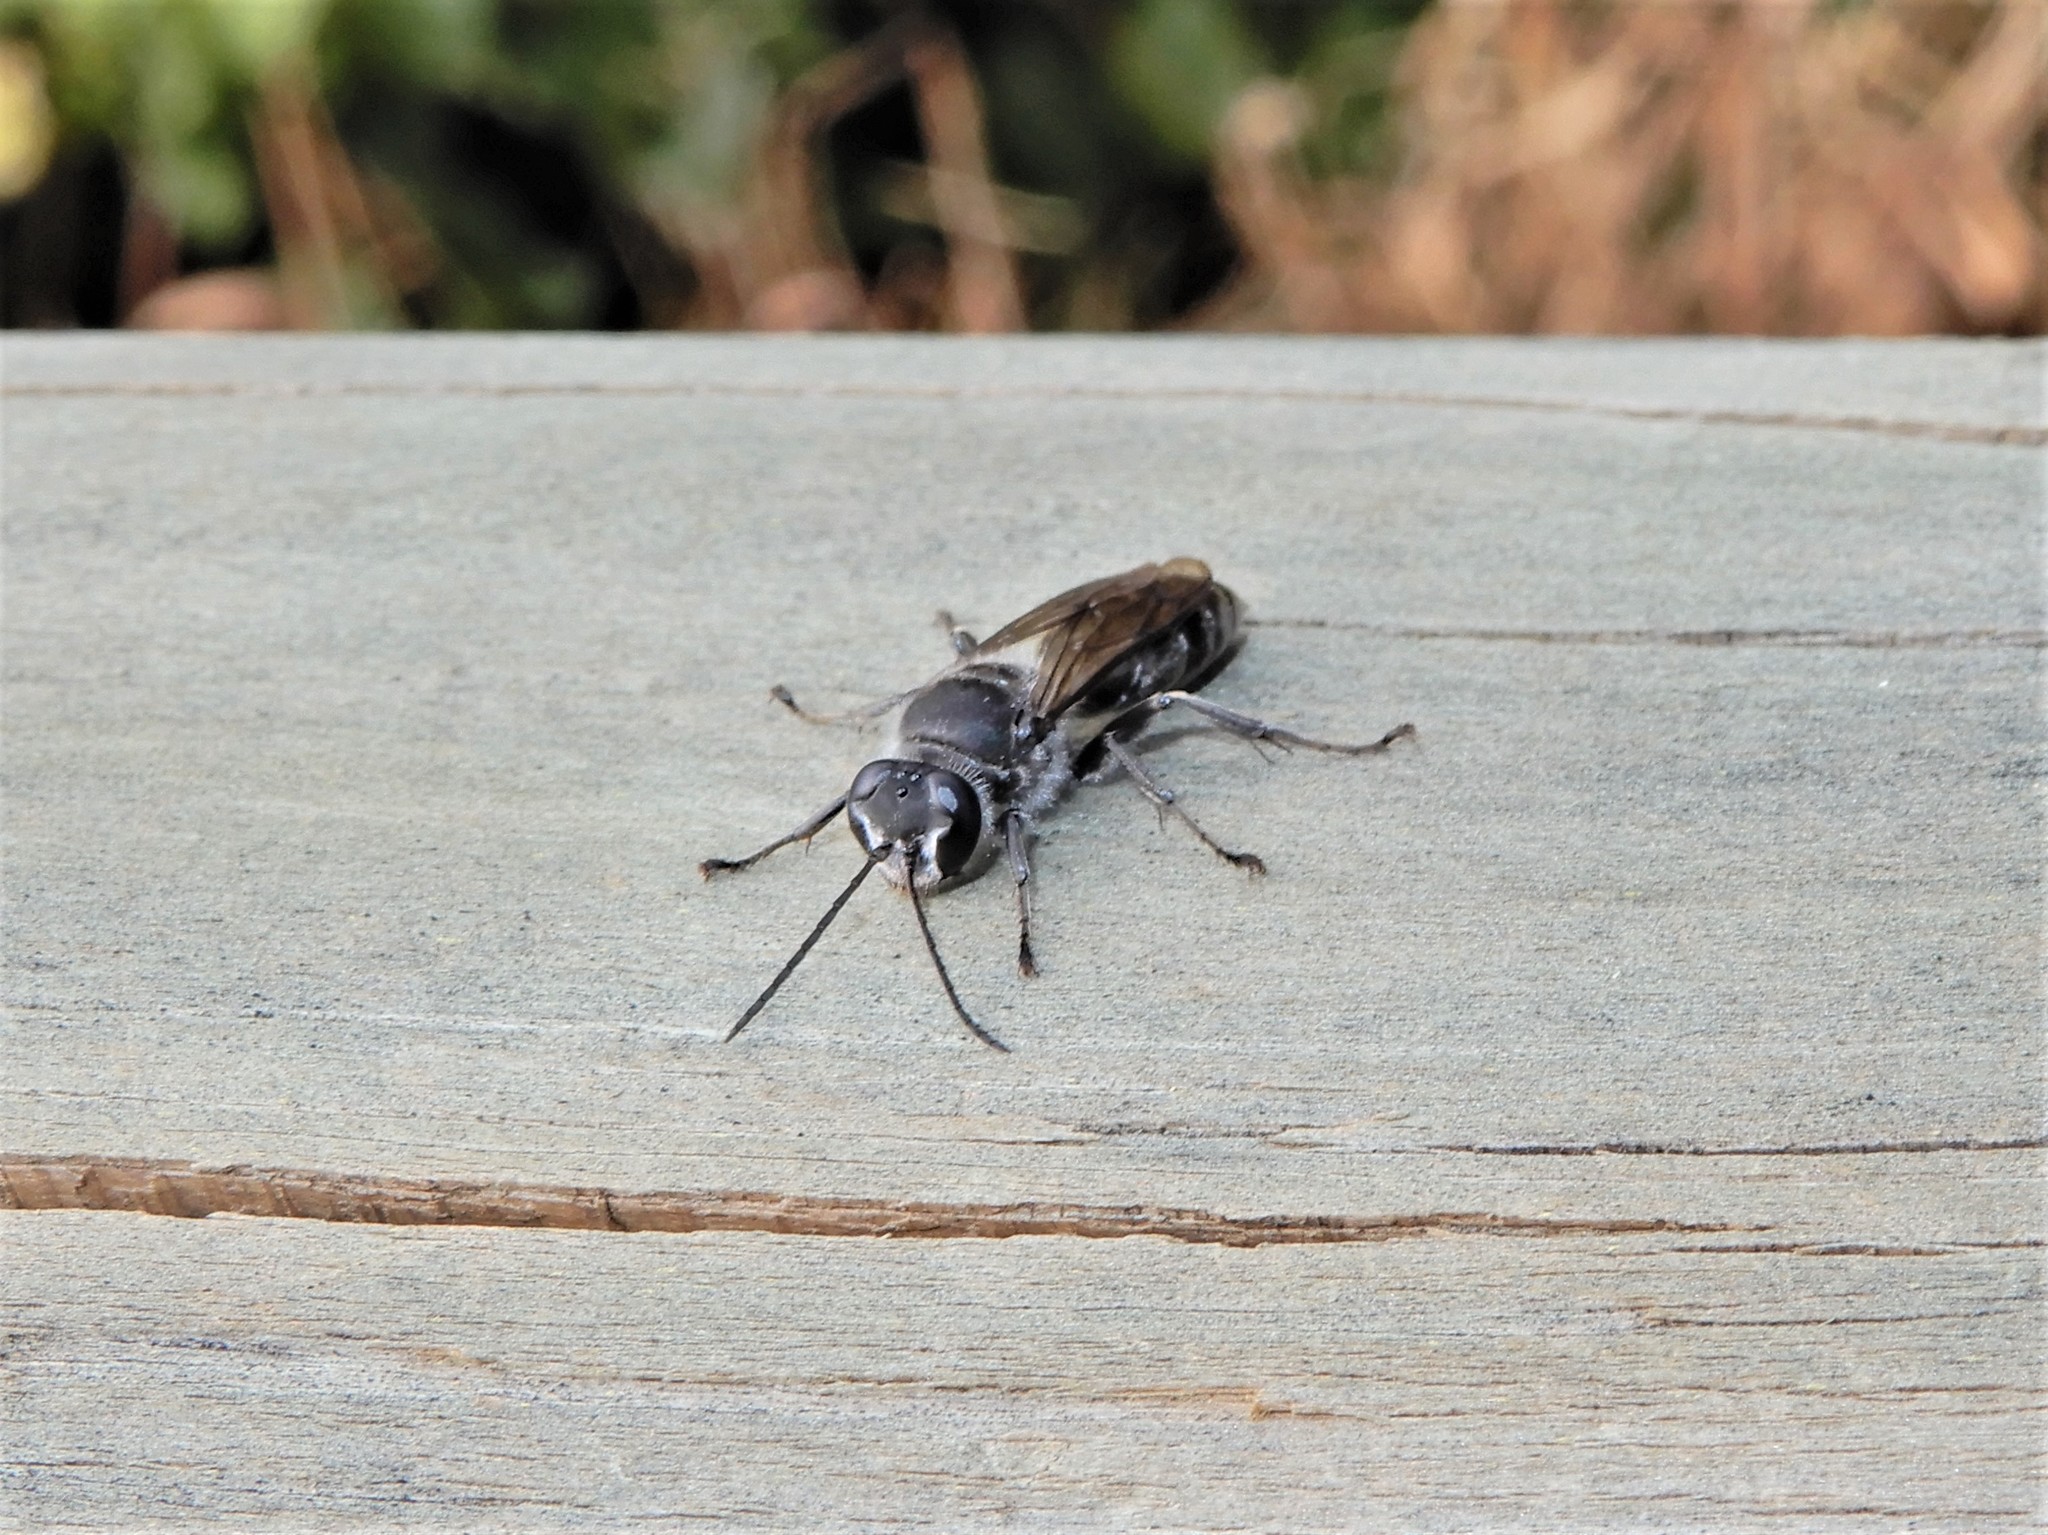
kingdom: Animalia
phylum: Arthropoda
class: Insecta
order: Hymenoptera
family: Crabronidae
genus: Pison
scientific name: Pison spinolae
